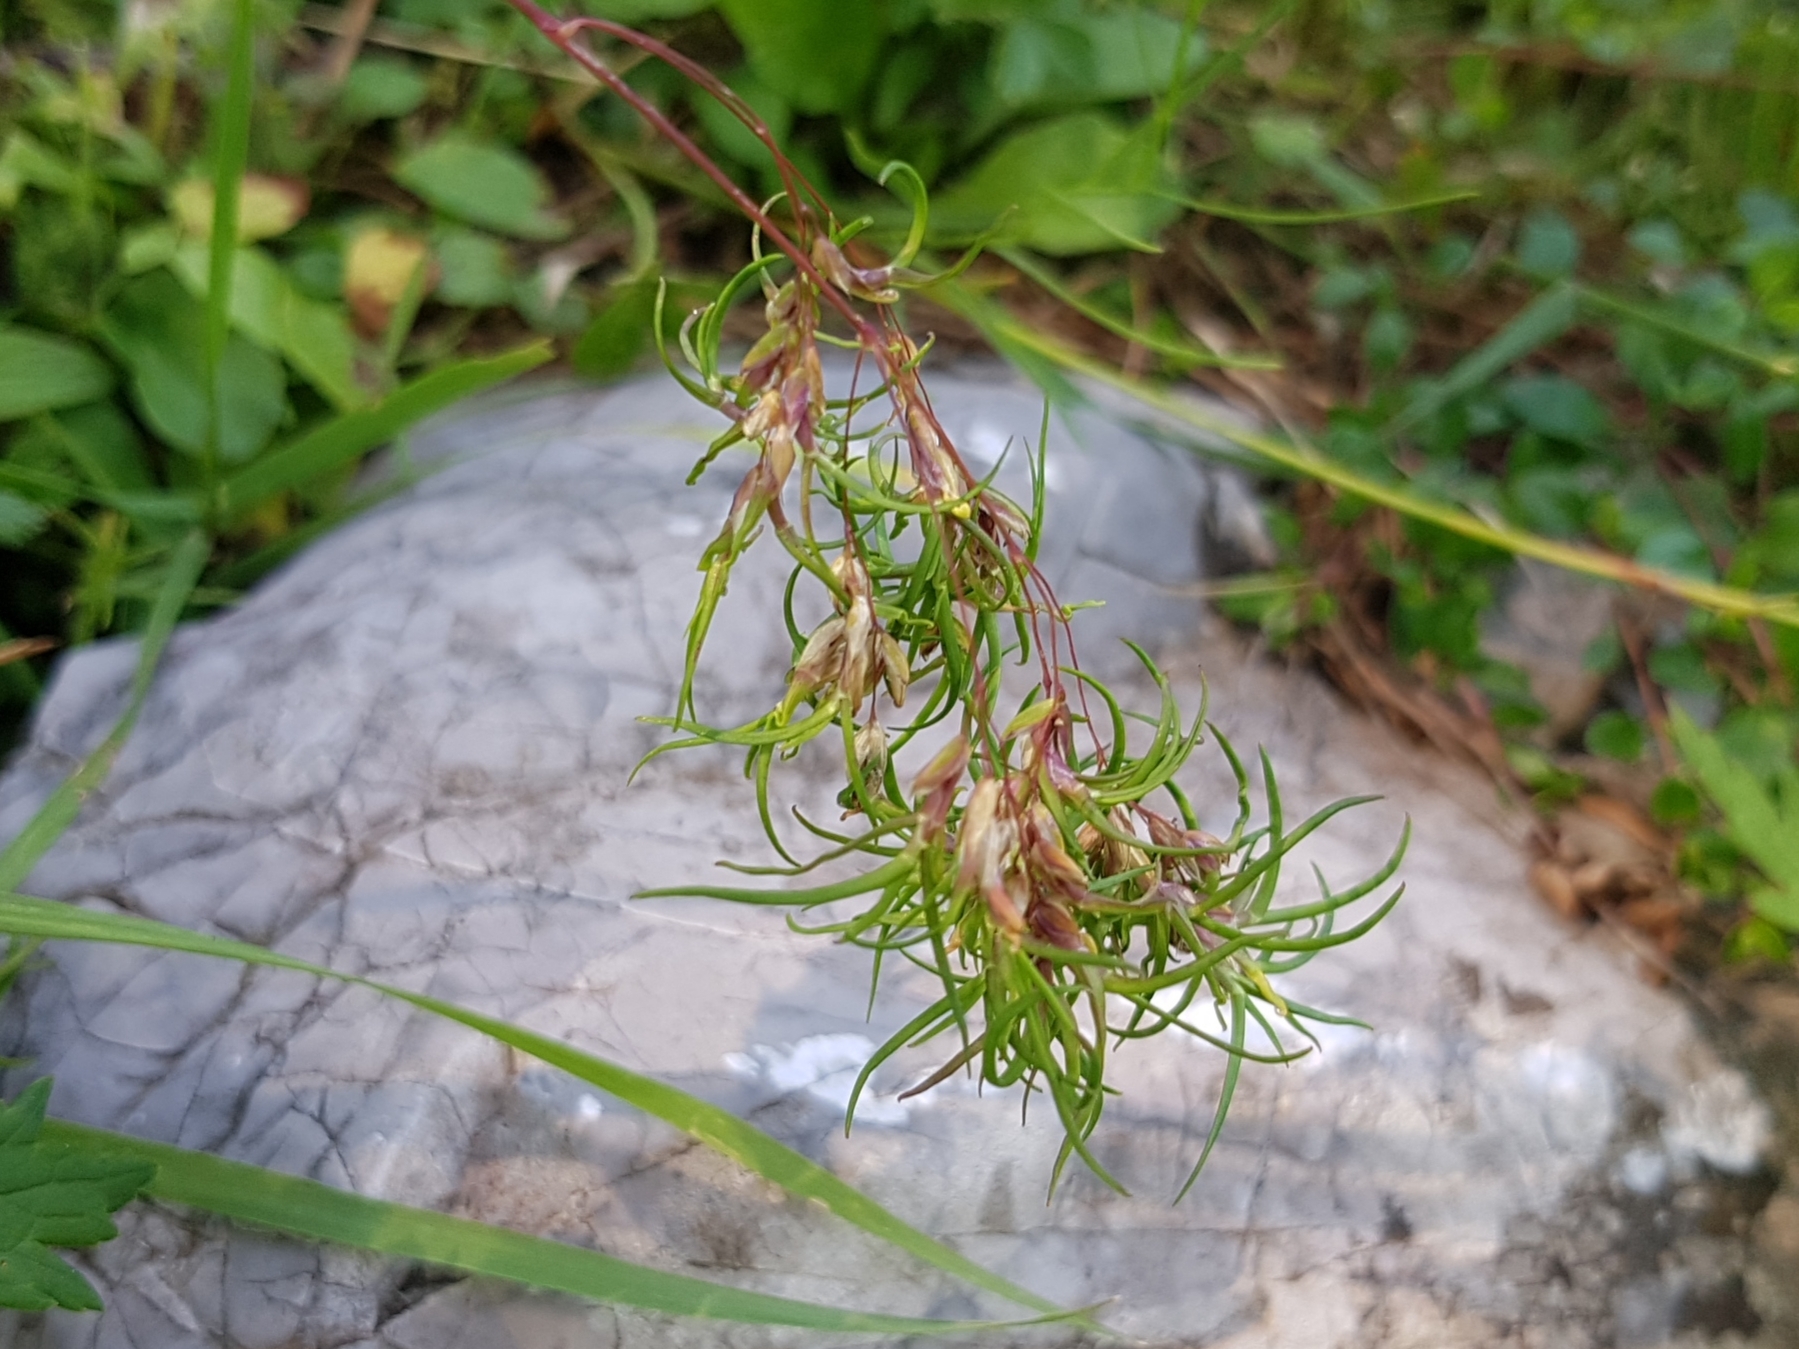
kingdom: Plantae
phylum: Tracheophyta
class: Liliopsida
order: Poales
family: Poaceae
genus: Poa
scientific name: Poa alpina
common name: Alpine bluegrass
